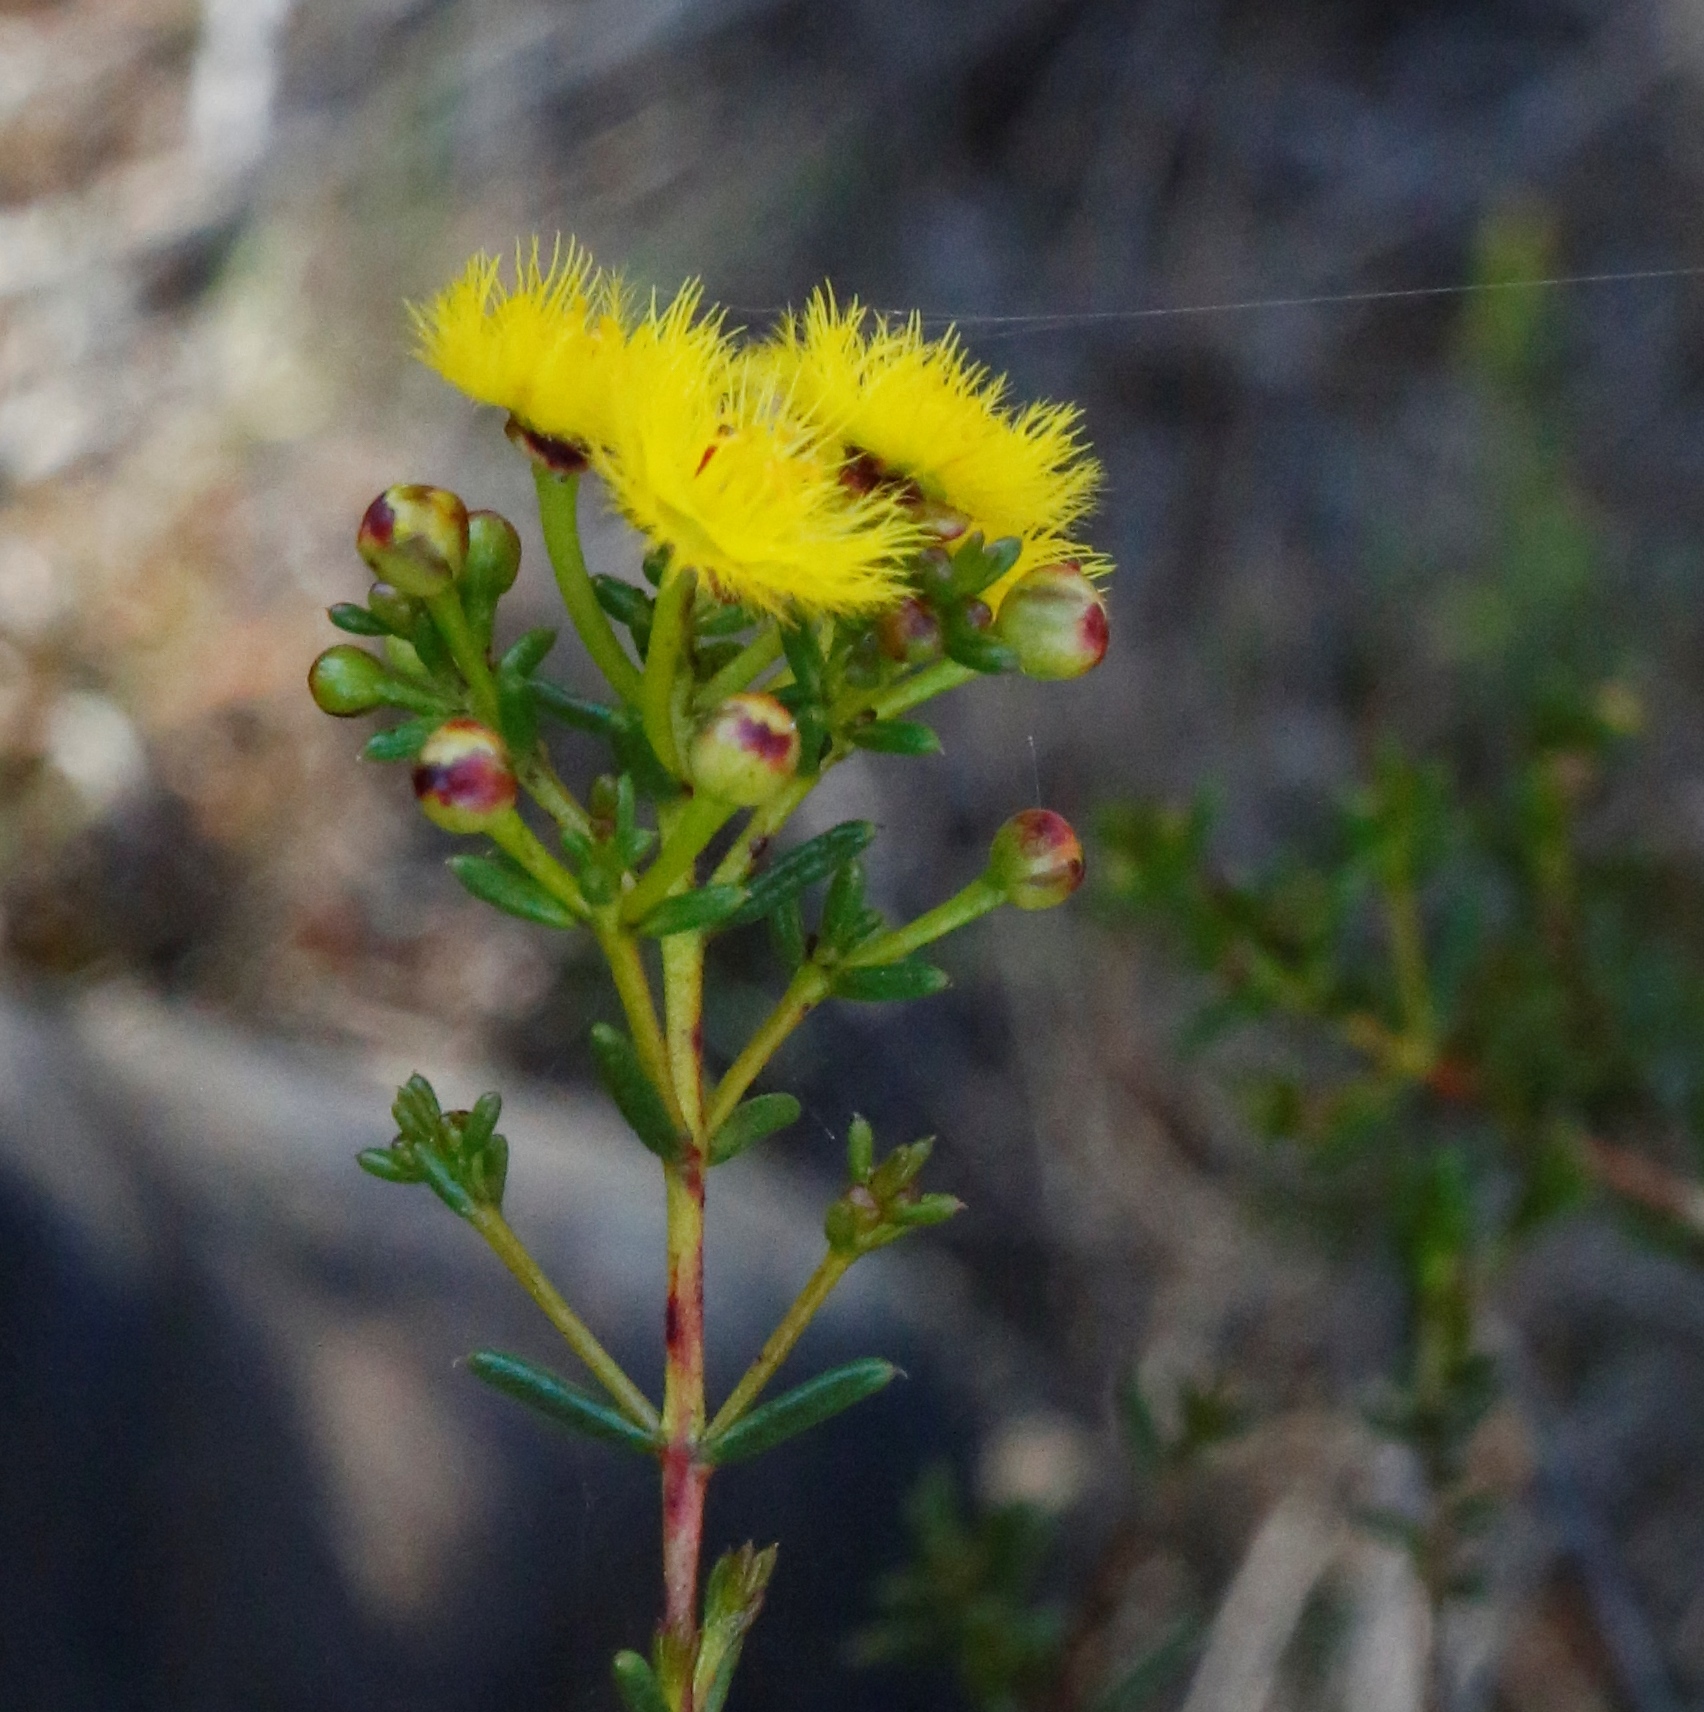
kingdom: Plantae
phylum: Tracheophyta
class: Magnoliopsida
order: Myrtales
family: Myrtaceae
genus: Verticordia
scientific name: Verticordia chrysantha
